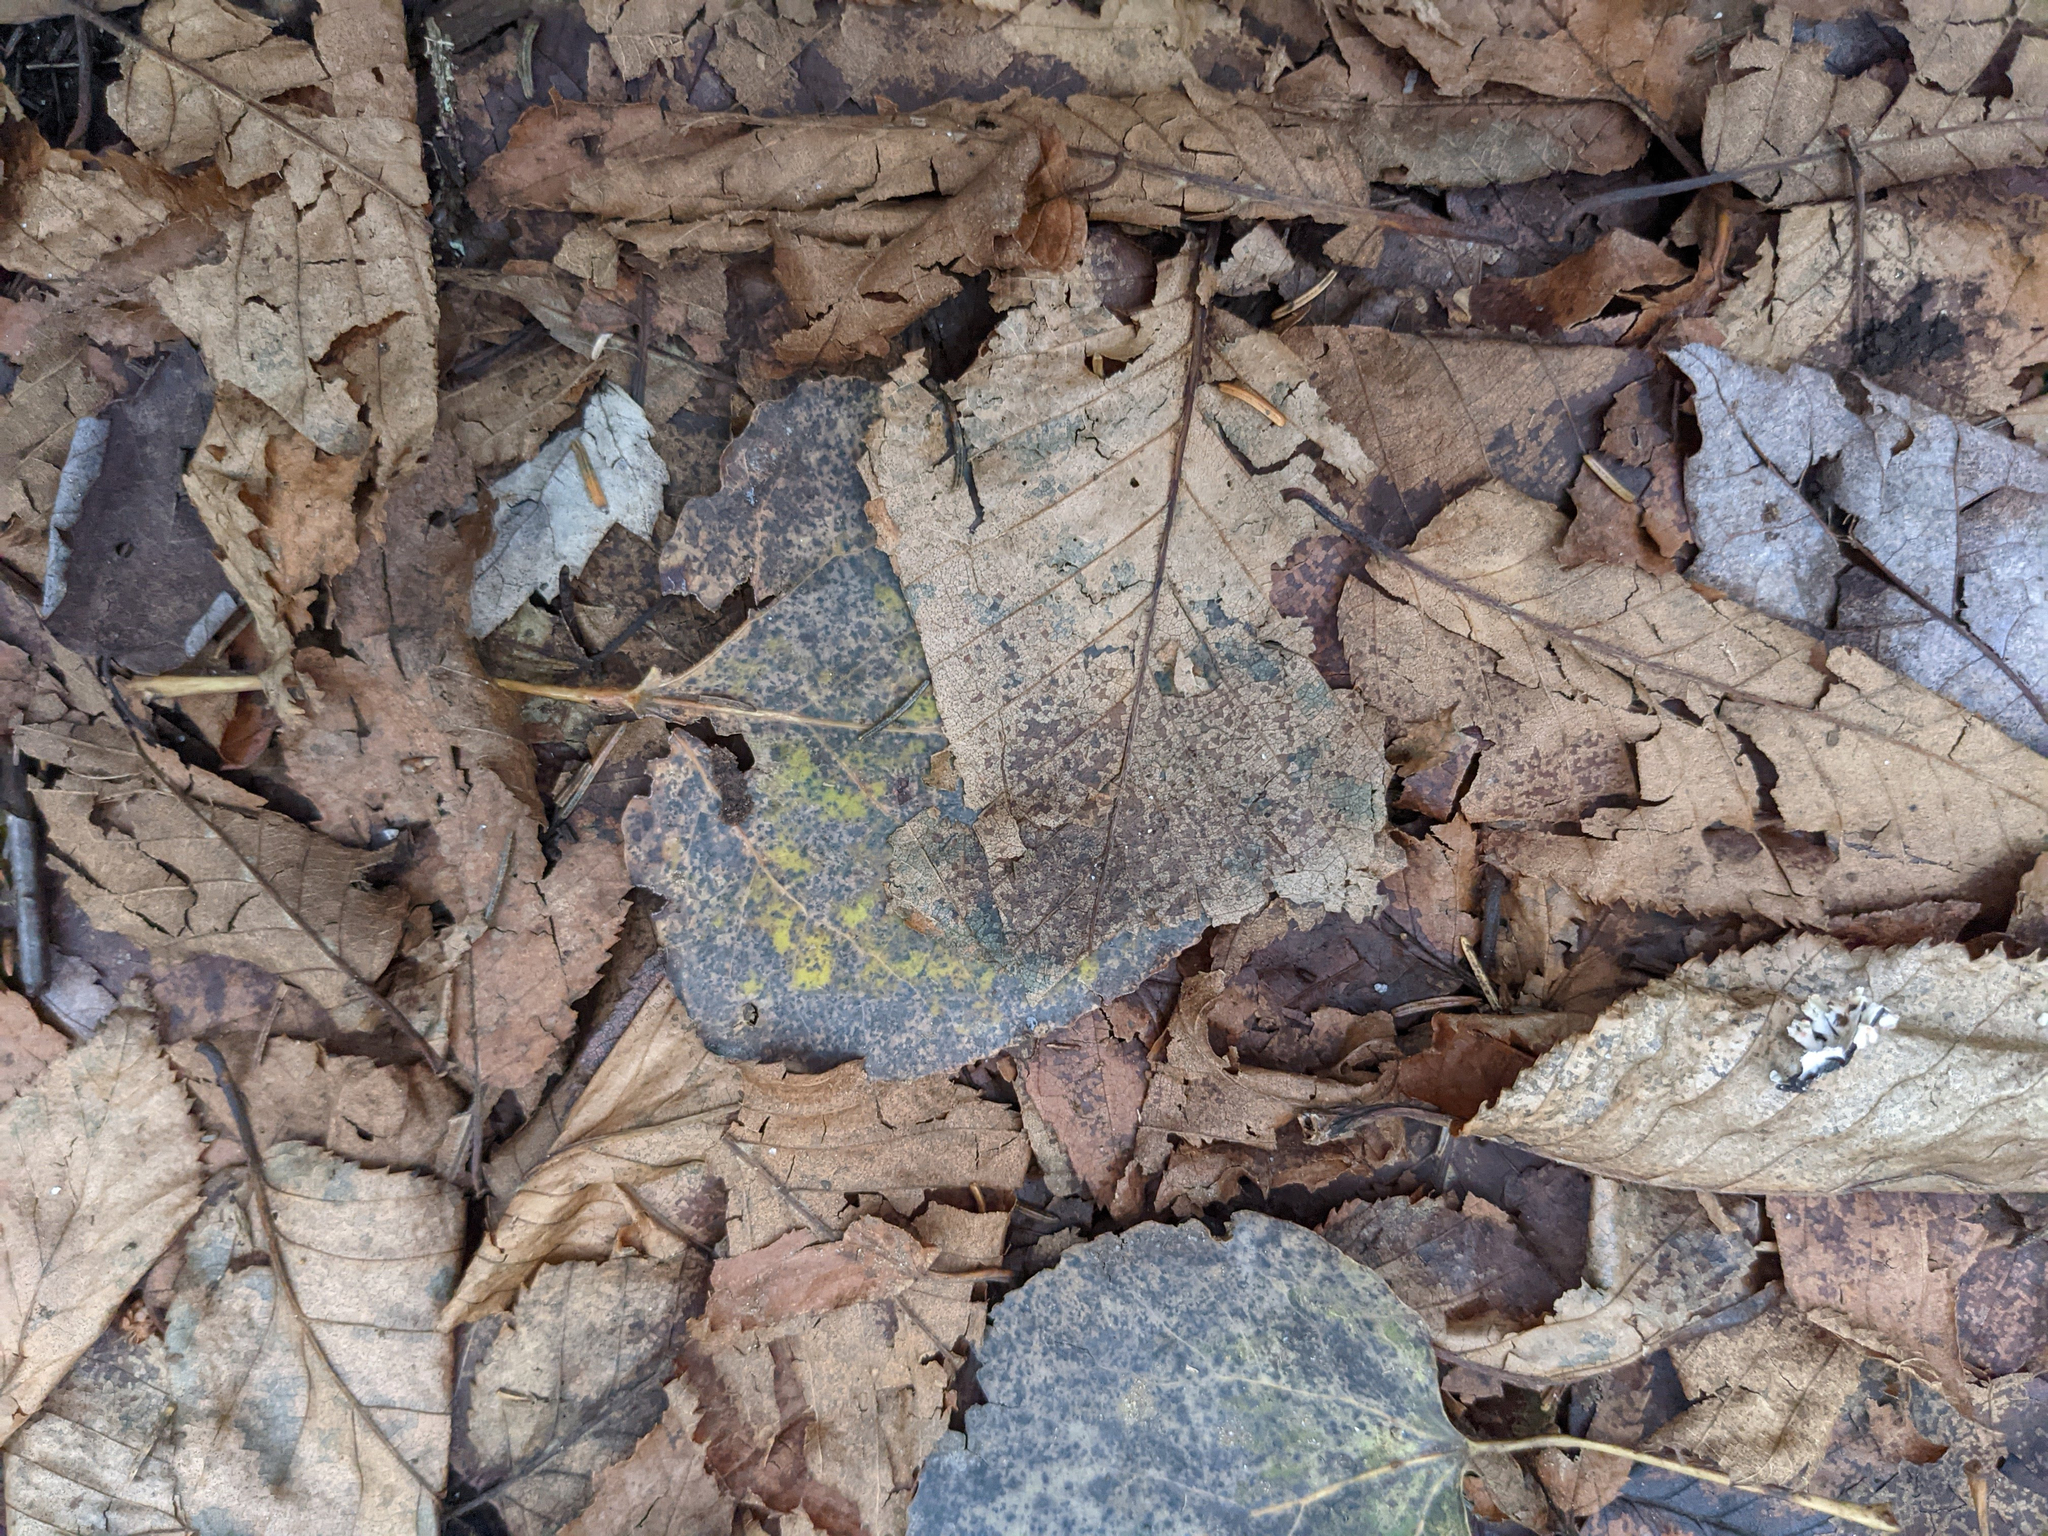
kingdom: Plantae
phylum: Tracheophyta
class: Magnoliopsida
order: Malpighiales
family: Salicaceae
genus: Populus
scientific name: Populus tremuloides
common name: Quaking aspen
